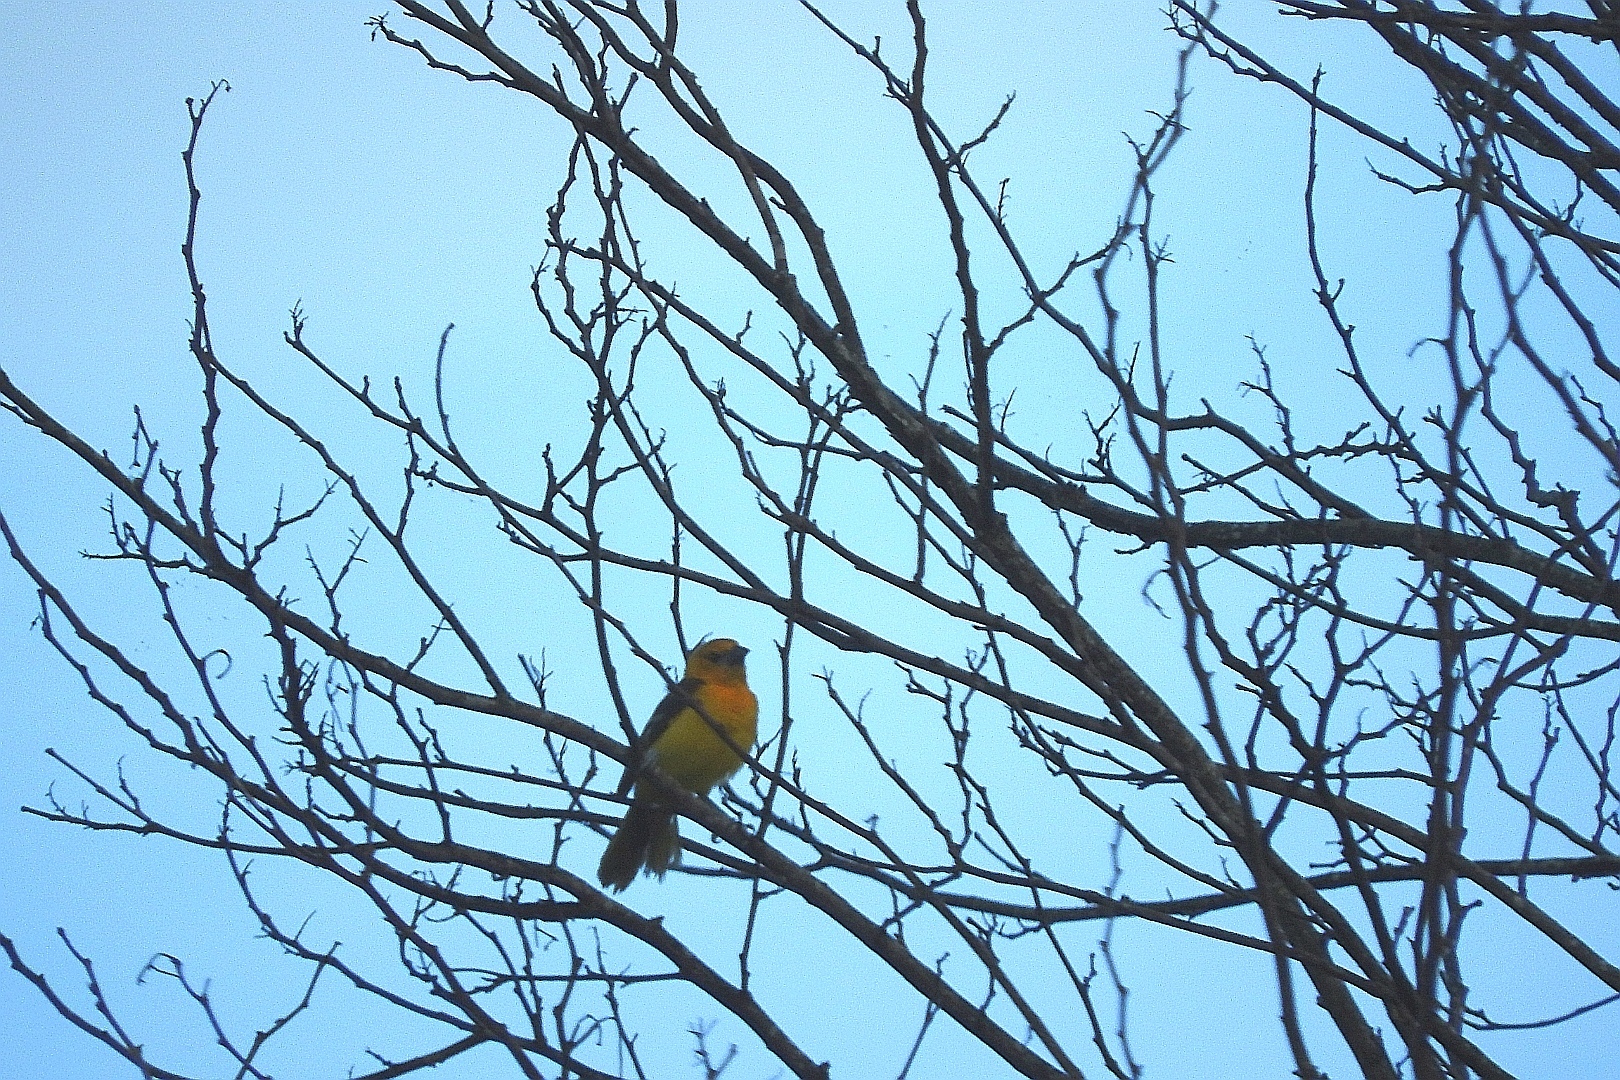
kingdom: Animalia
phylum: Chordata
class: Aves
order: Passeriformes
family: Icteridae
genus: Icterus
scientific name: Icterus cucullatus
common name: Hooded oriole
